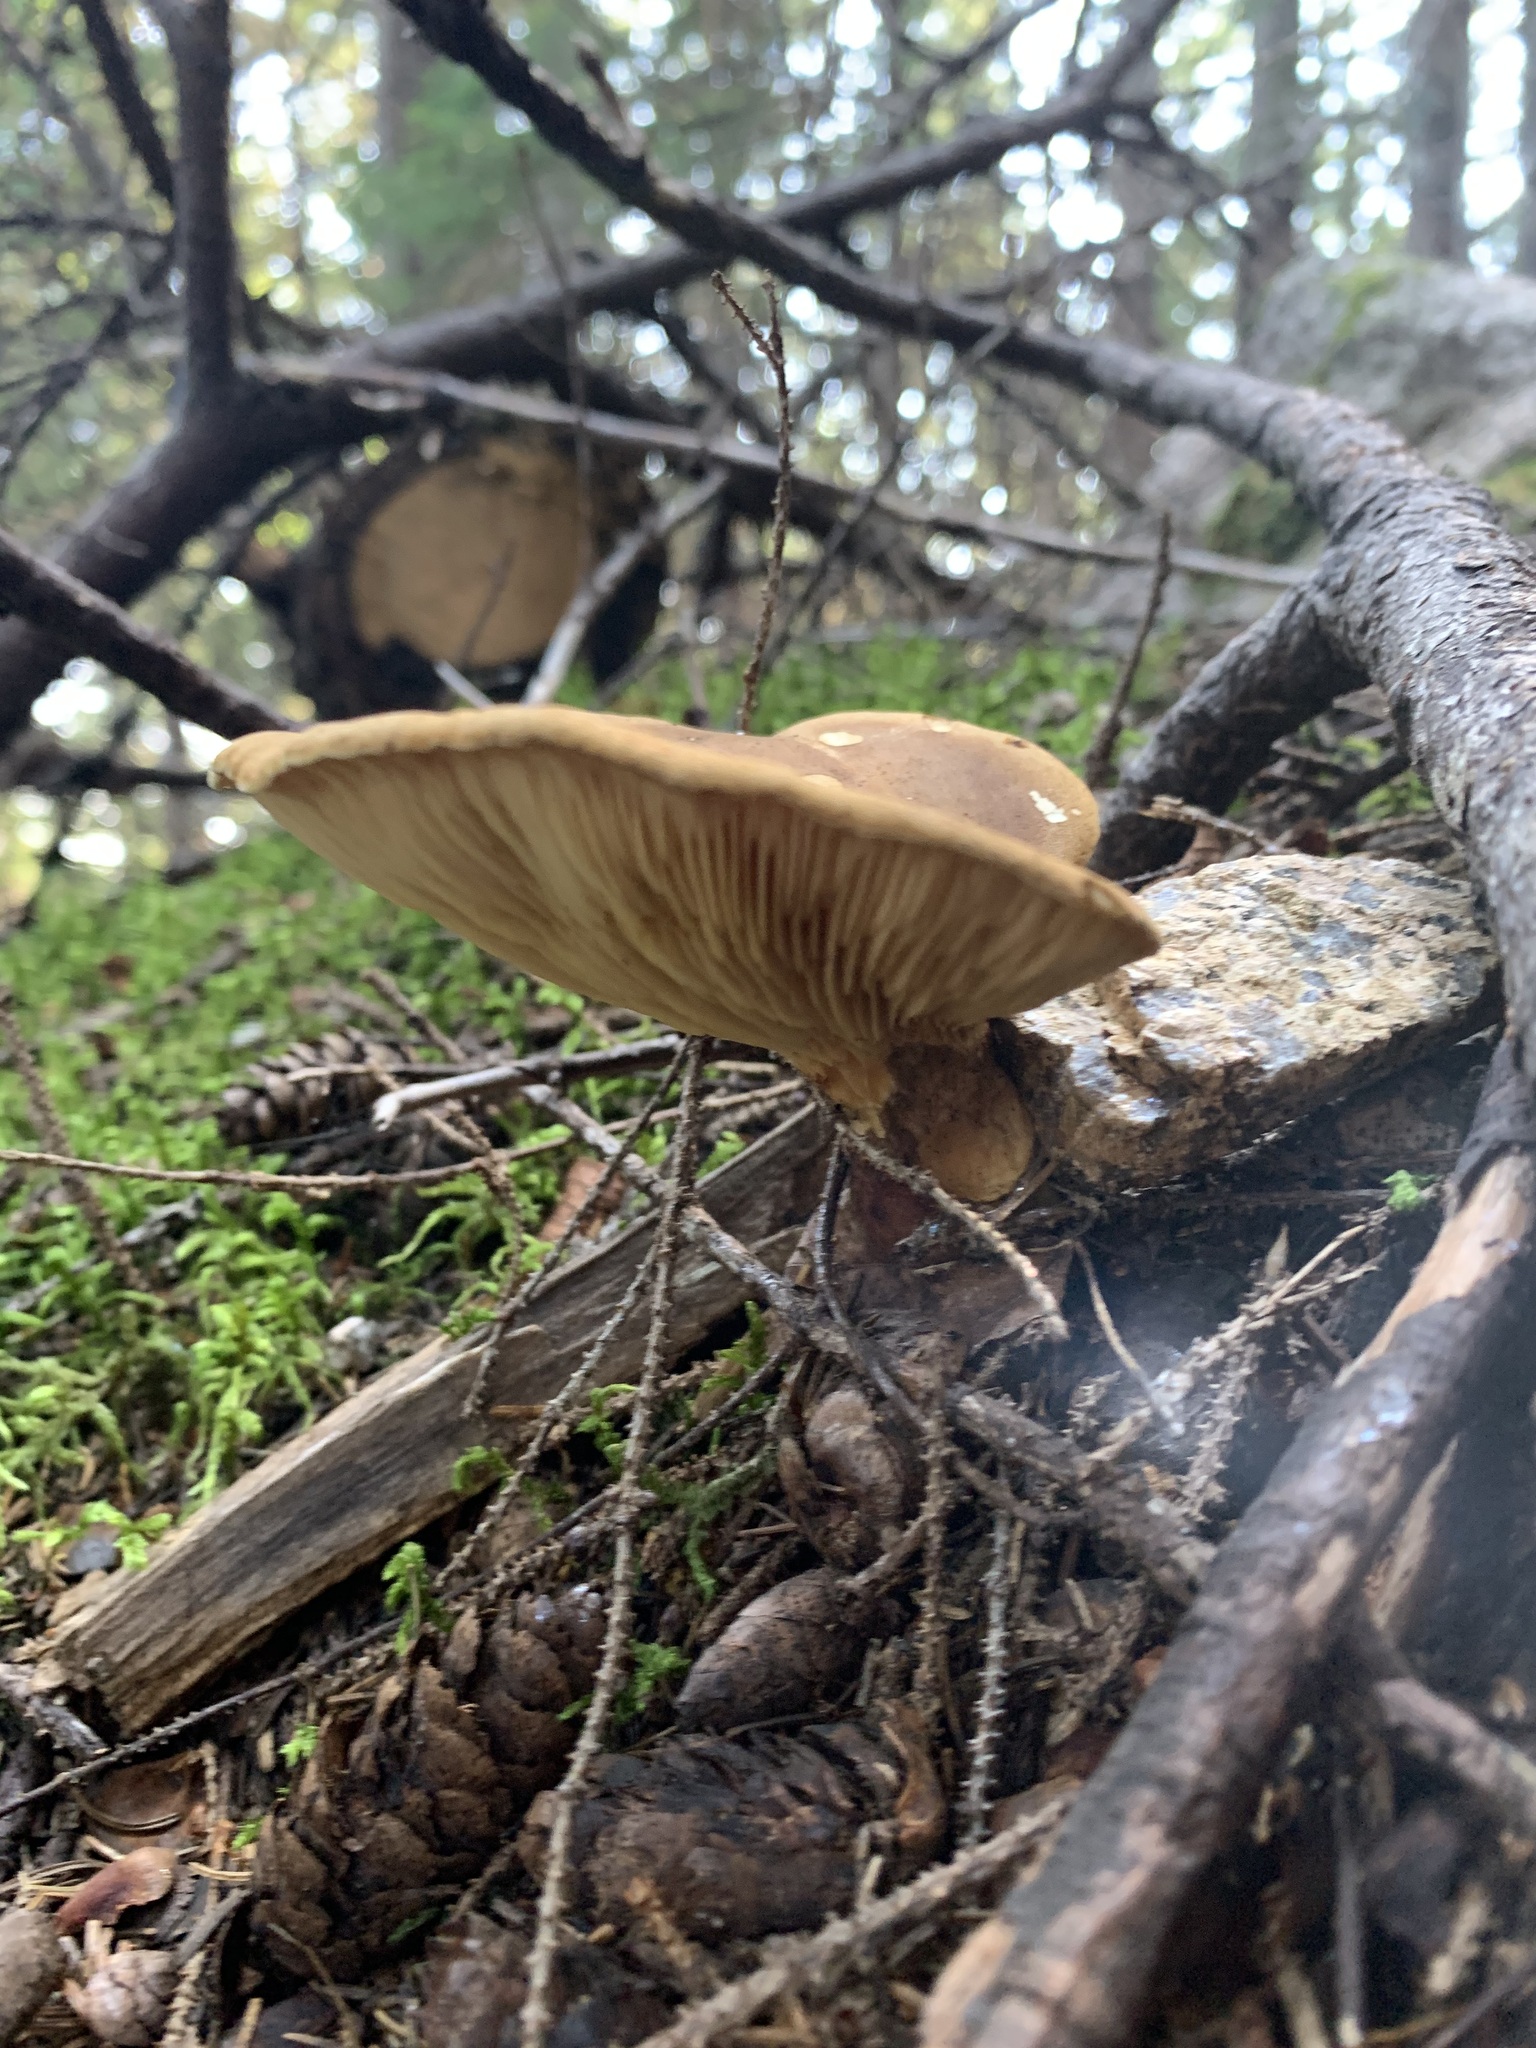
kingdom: Fungi
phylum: Basidiomycota
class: Agaricomycetes
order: Boletales
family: Tapinellaceae
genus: Tapinella
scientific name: Tapinella atrotomentosa
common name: Velvet rollrim
